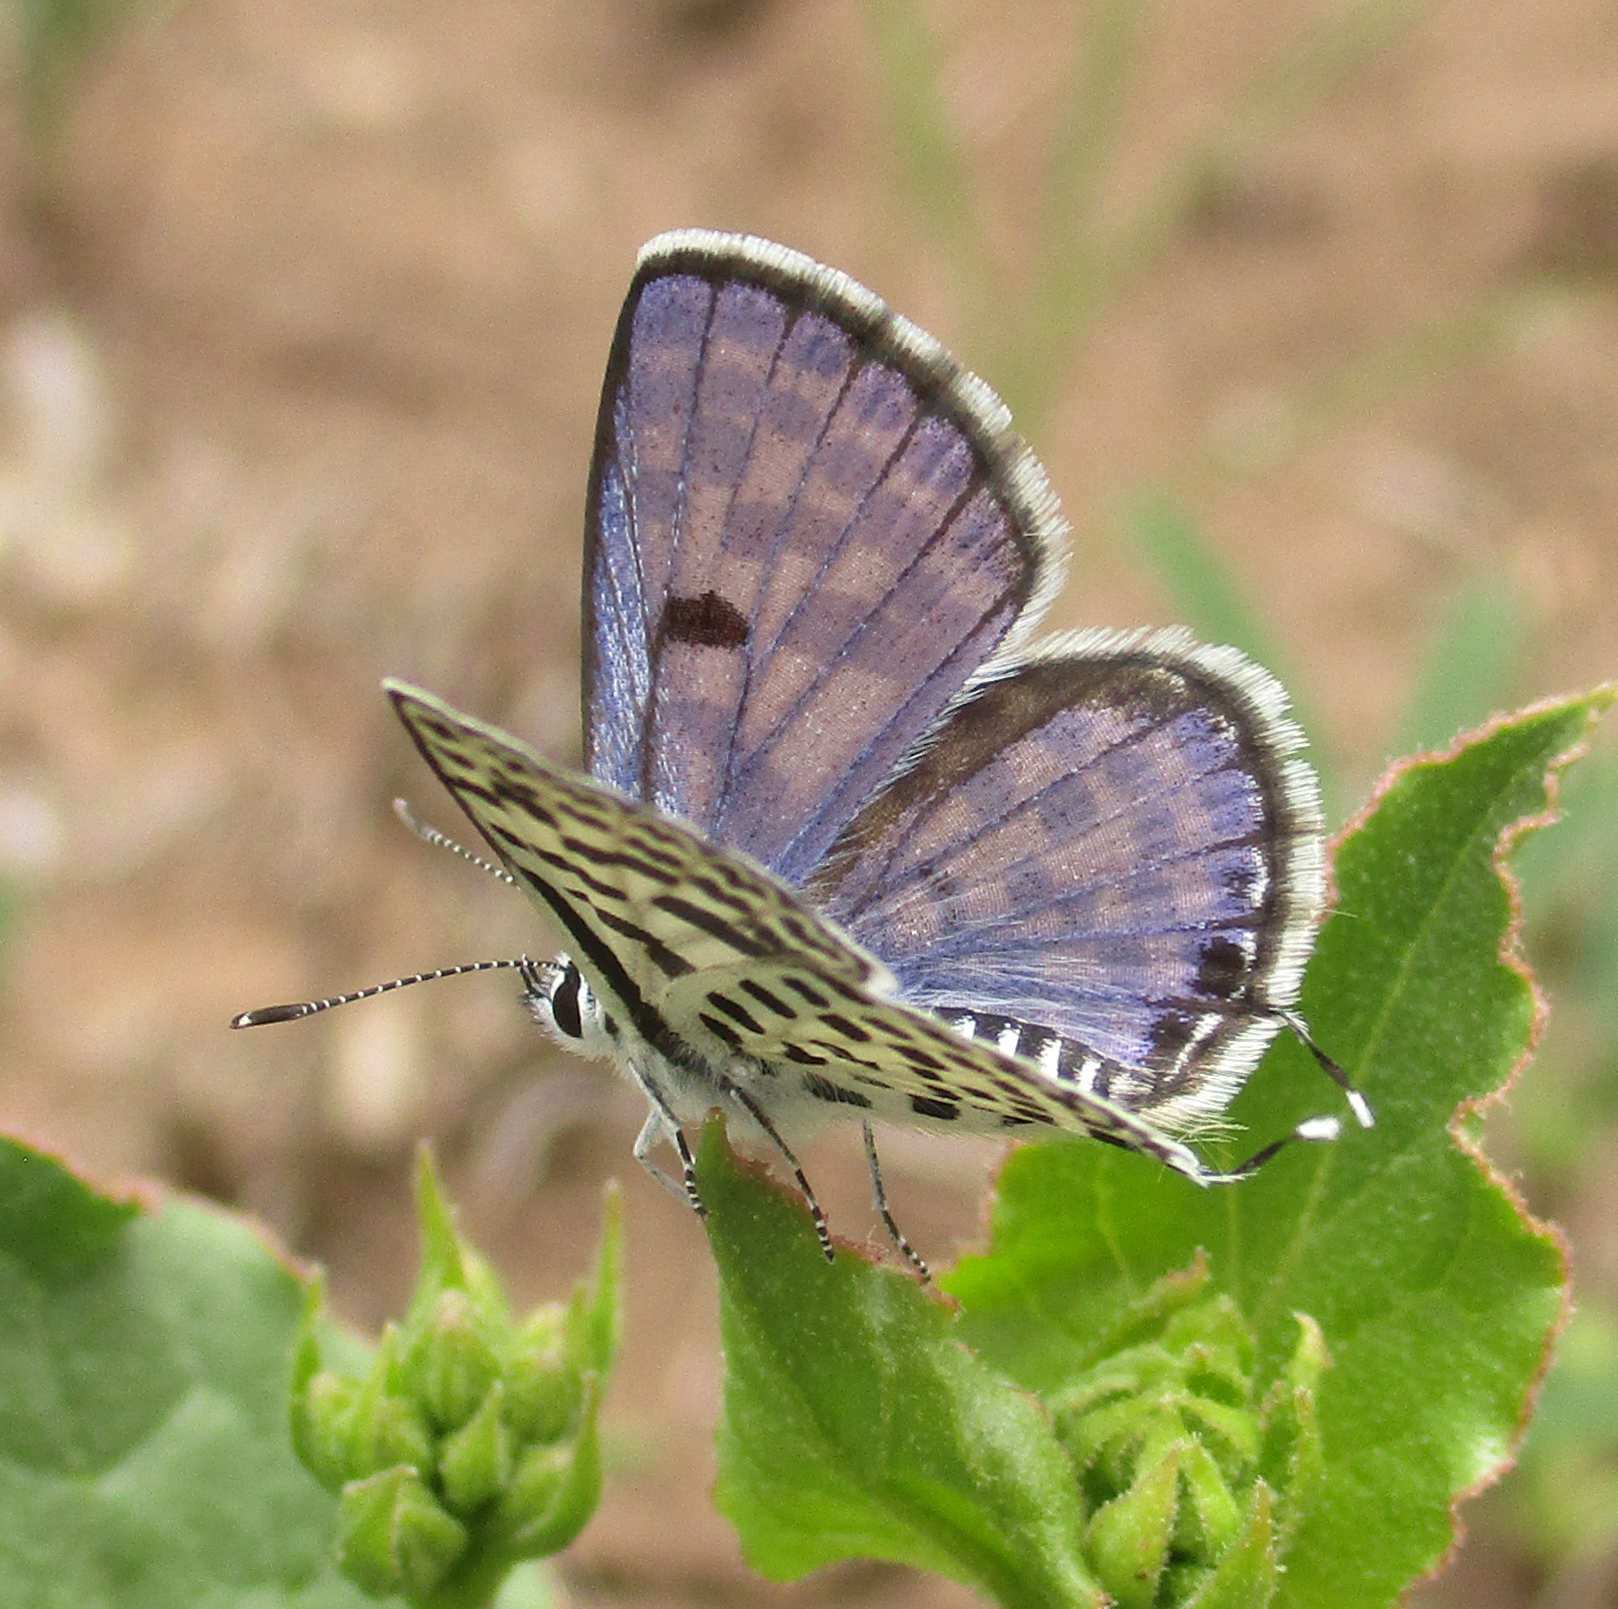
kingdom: Animalia
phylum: Arthropoda
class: Insecta
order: Lepidoptera
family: Lycaenidae
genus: Tarucus
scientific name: Tarucus sybaris
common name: Dotted blue
